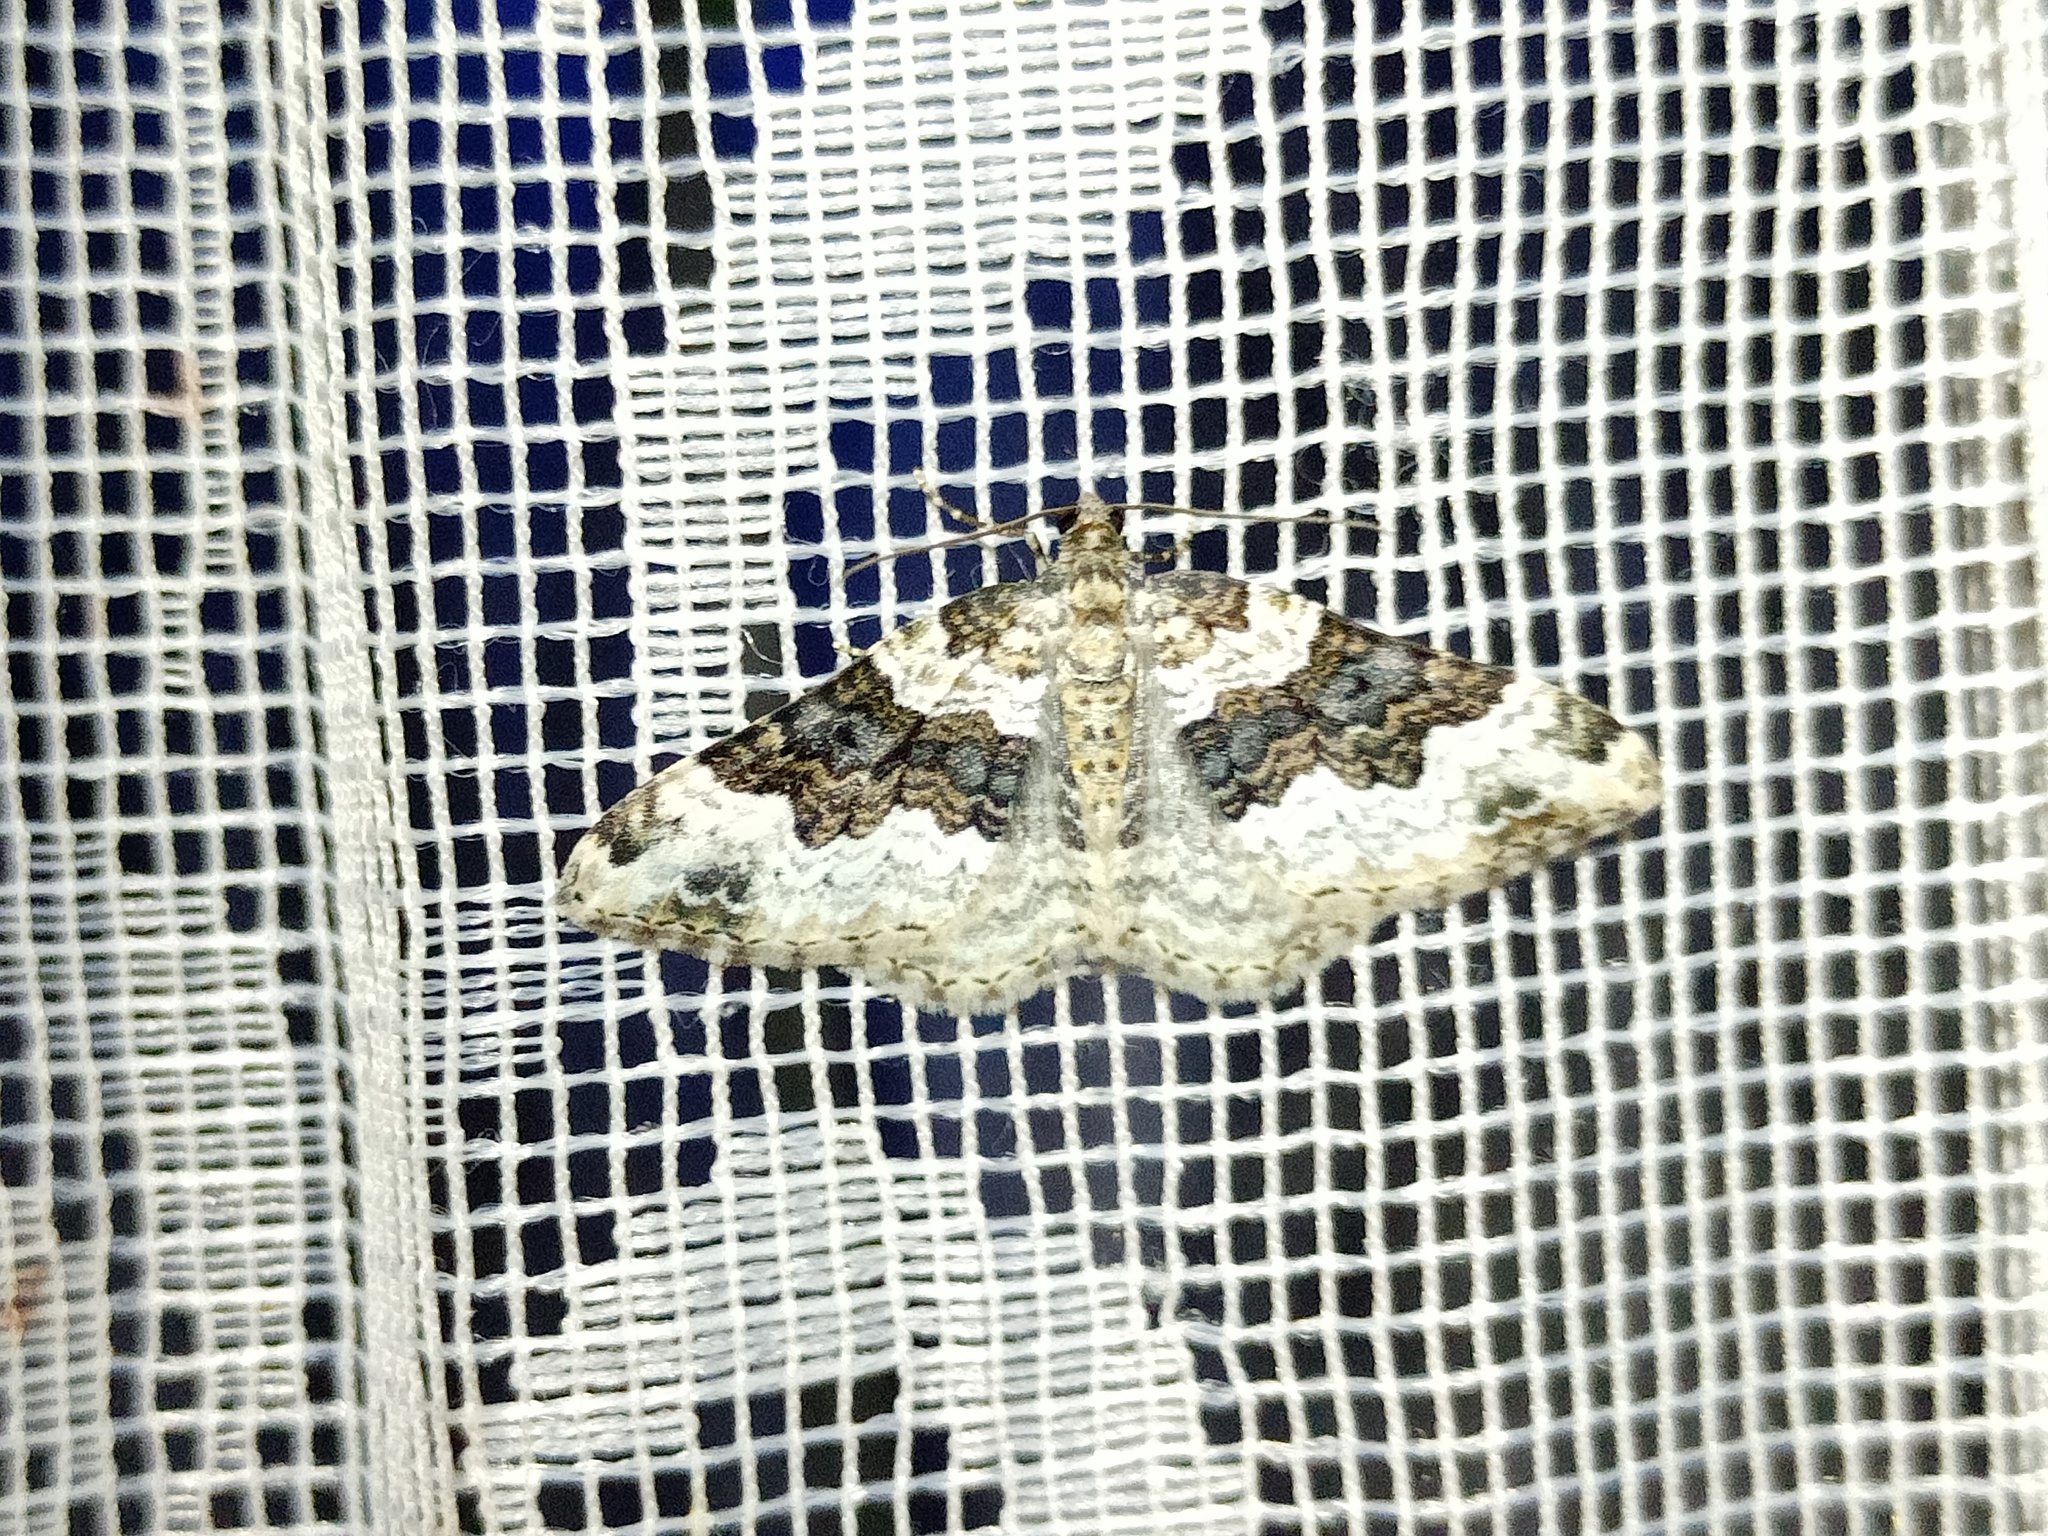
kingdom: Animalia
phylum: Arthropoda
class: Insecta
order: Lepidoptera
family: Geometridae
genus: Epirrhoe
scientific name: Epirrhoe galiata
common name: Galium carpet
